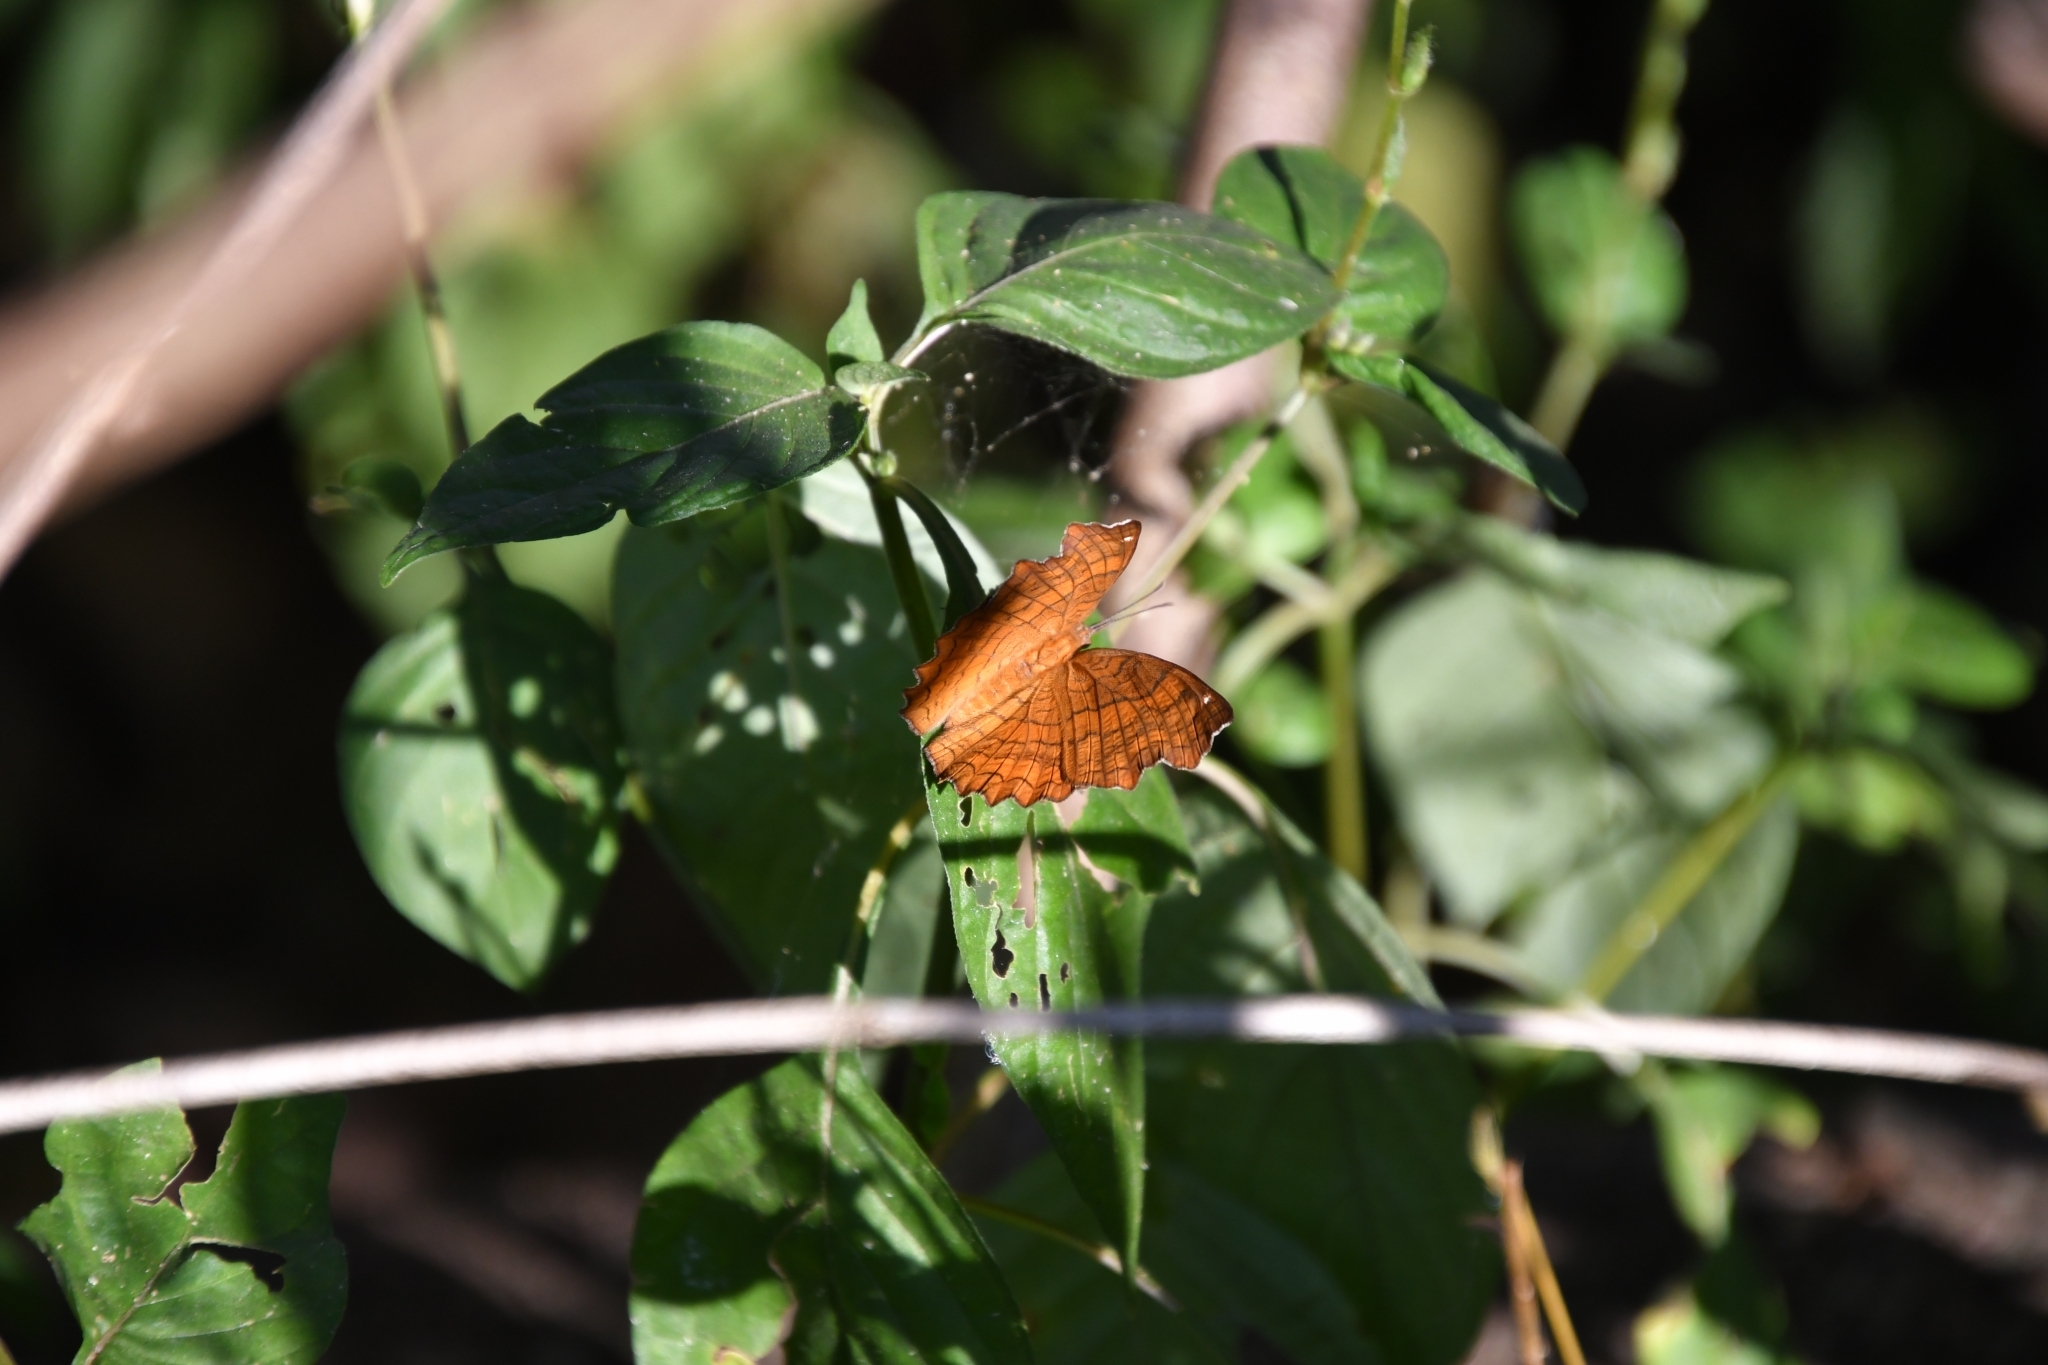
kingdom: Animalia
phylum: Arthropoda
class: Insecta
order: Lepidoptera
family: Nymphalidae
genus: Ariadne
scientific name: Ariadne ariadne
